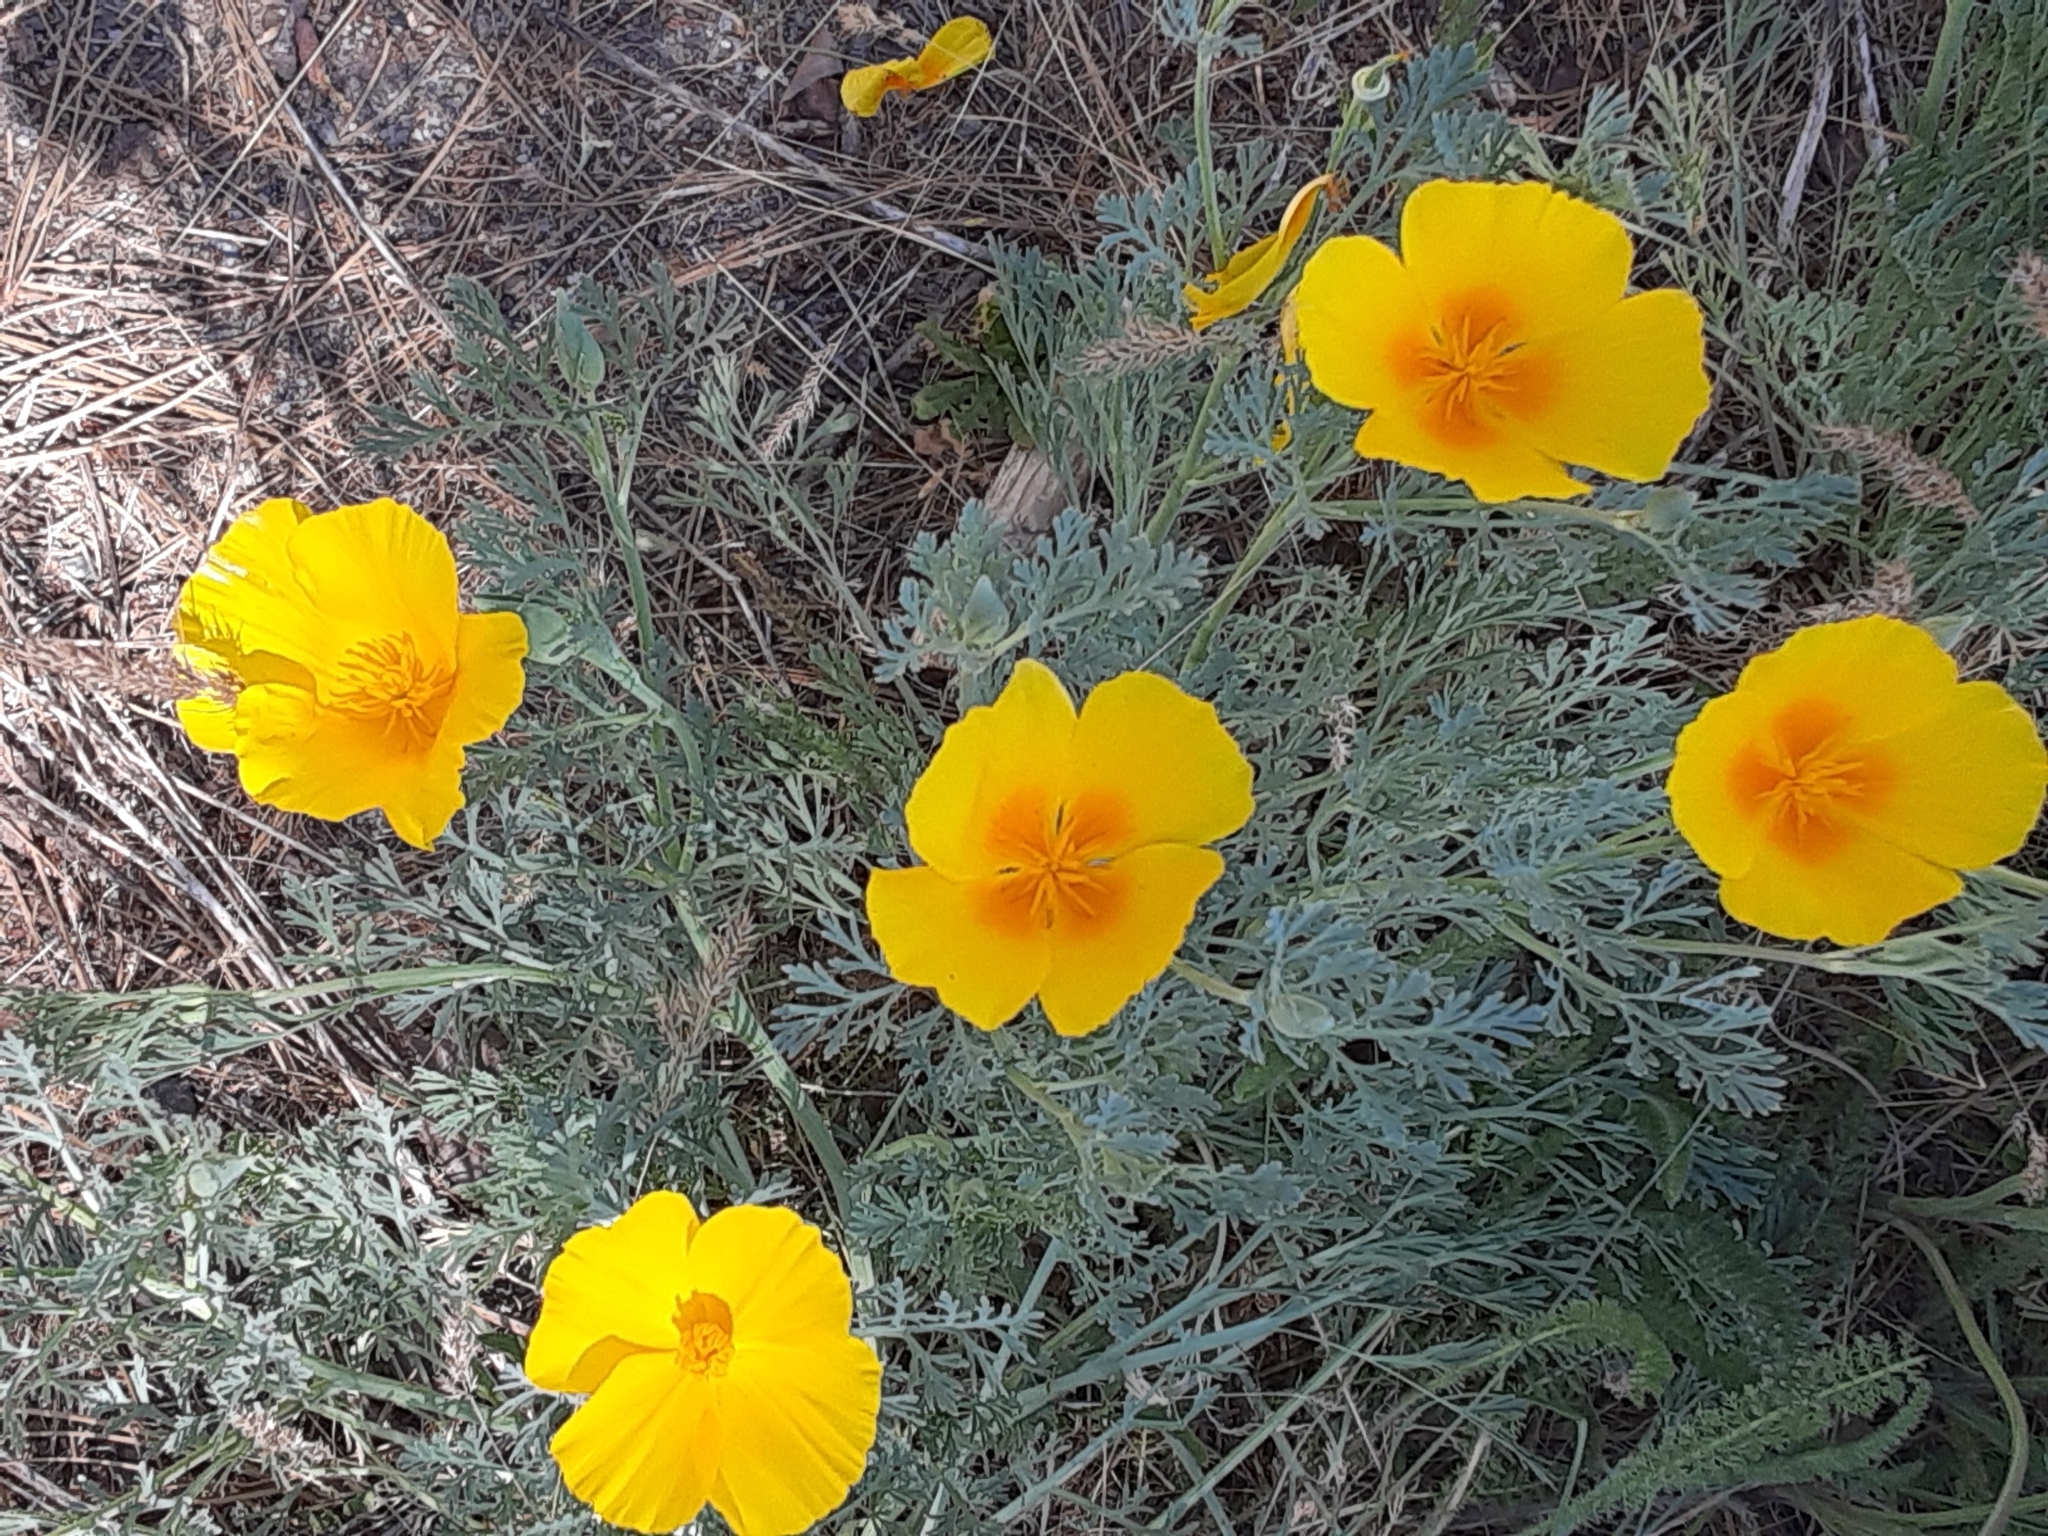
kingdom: Plantae
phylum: Tracheophyta
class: Magnoliopsida
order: Ranunculales
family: Papaveraceae
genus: Eschscholzia
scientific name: Eschscholzia californica
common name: California poppy
